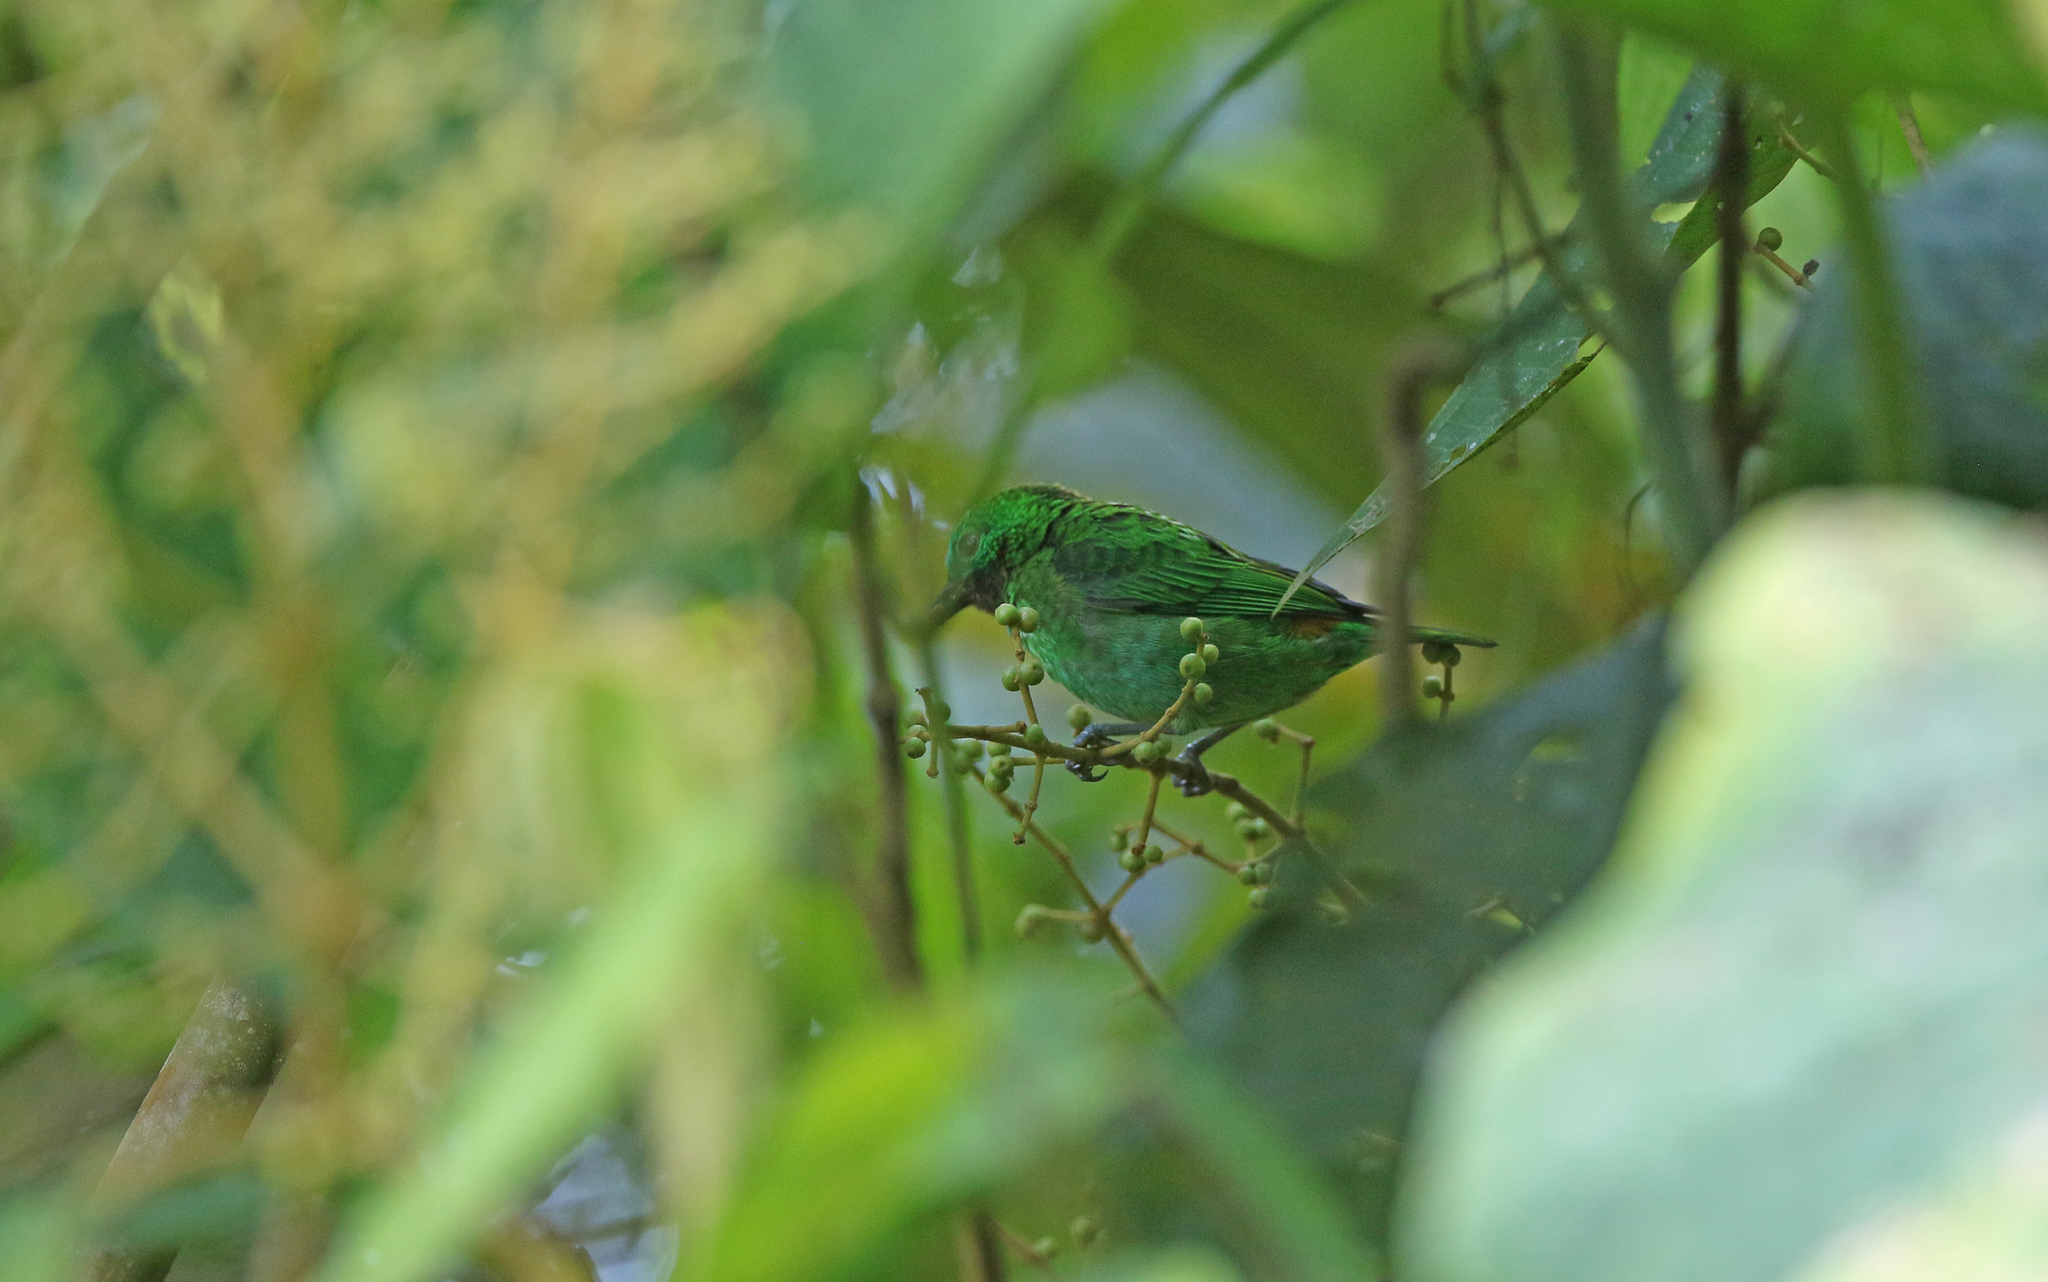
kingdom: Animalia
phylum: Chordata
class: Aves
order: Passeriformes
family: Thraupidae
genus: Chlorochrysa
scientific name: Chlorochrysa calliparaea
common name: Orange-eared tanager
